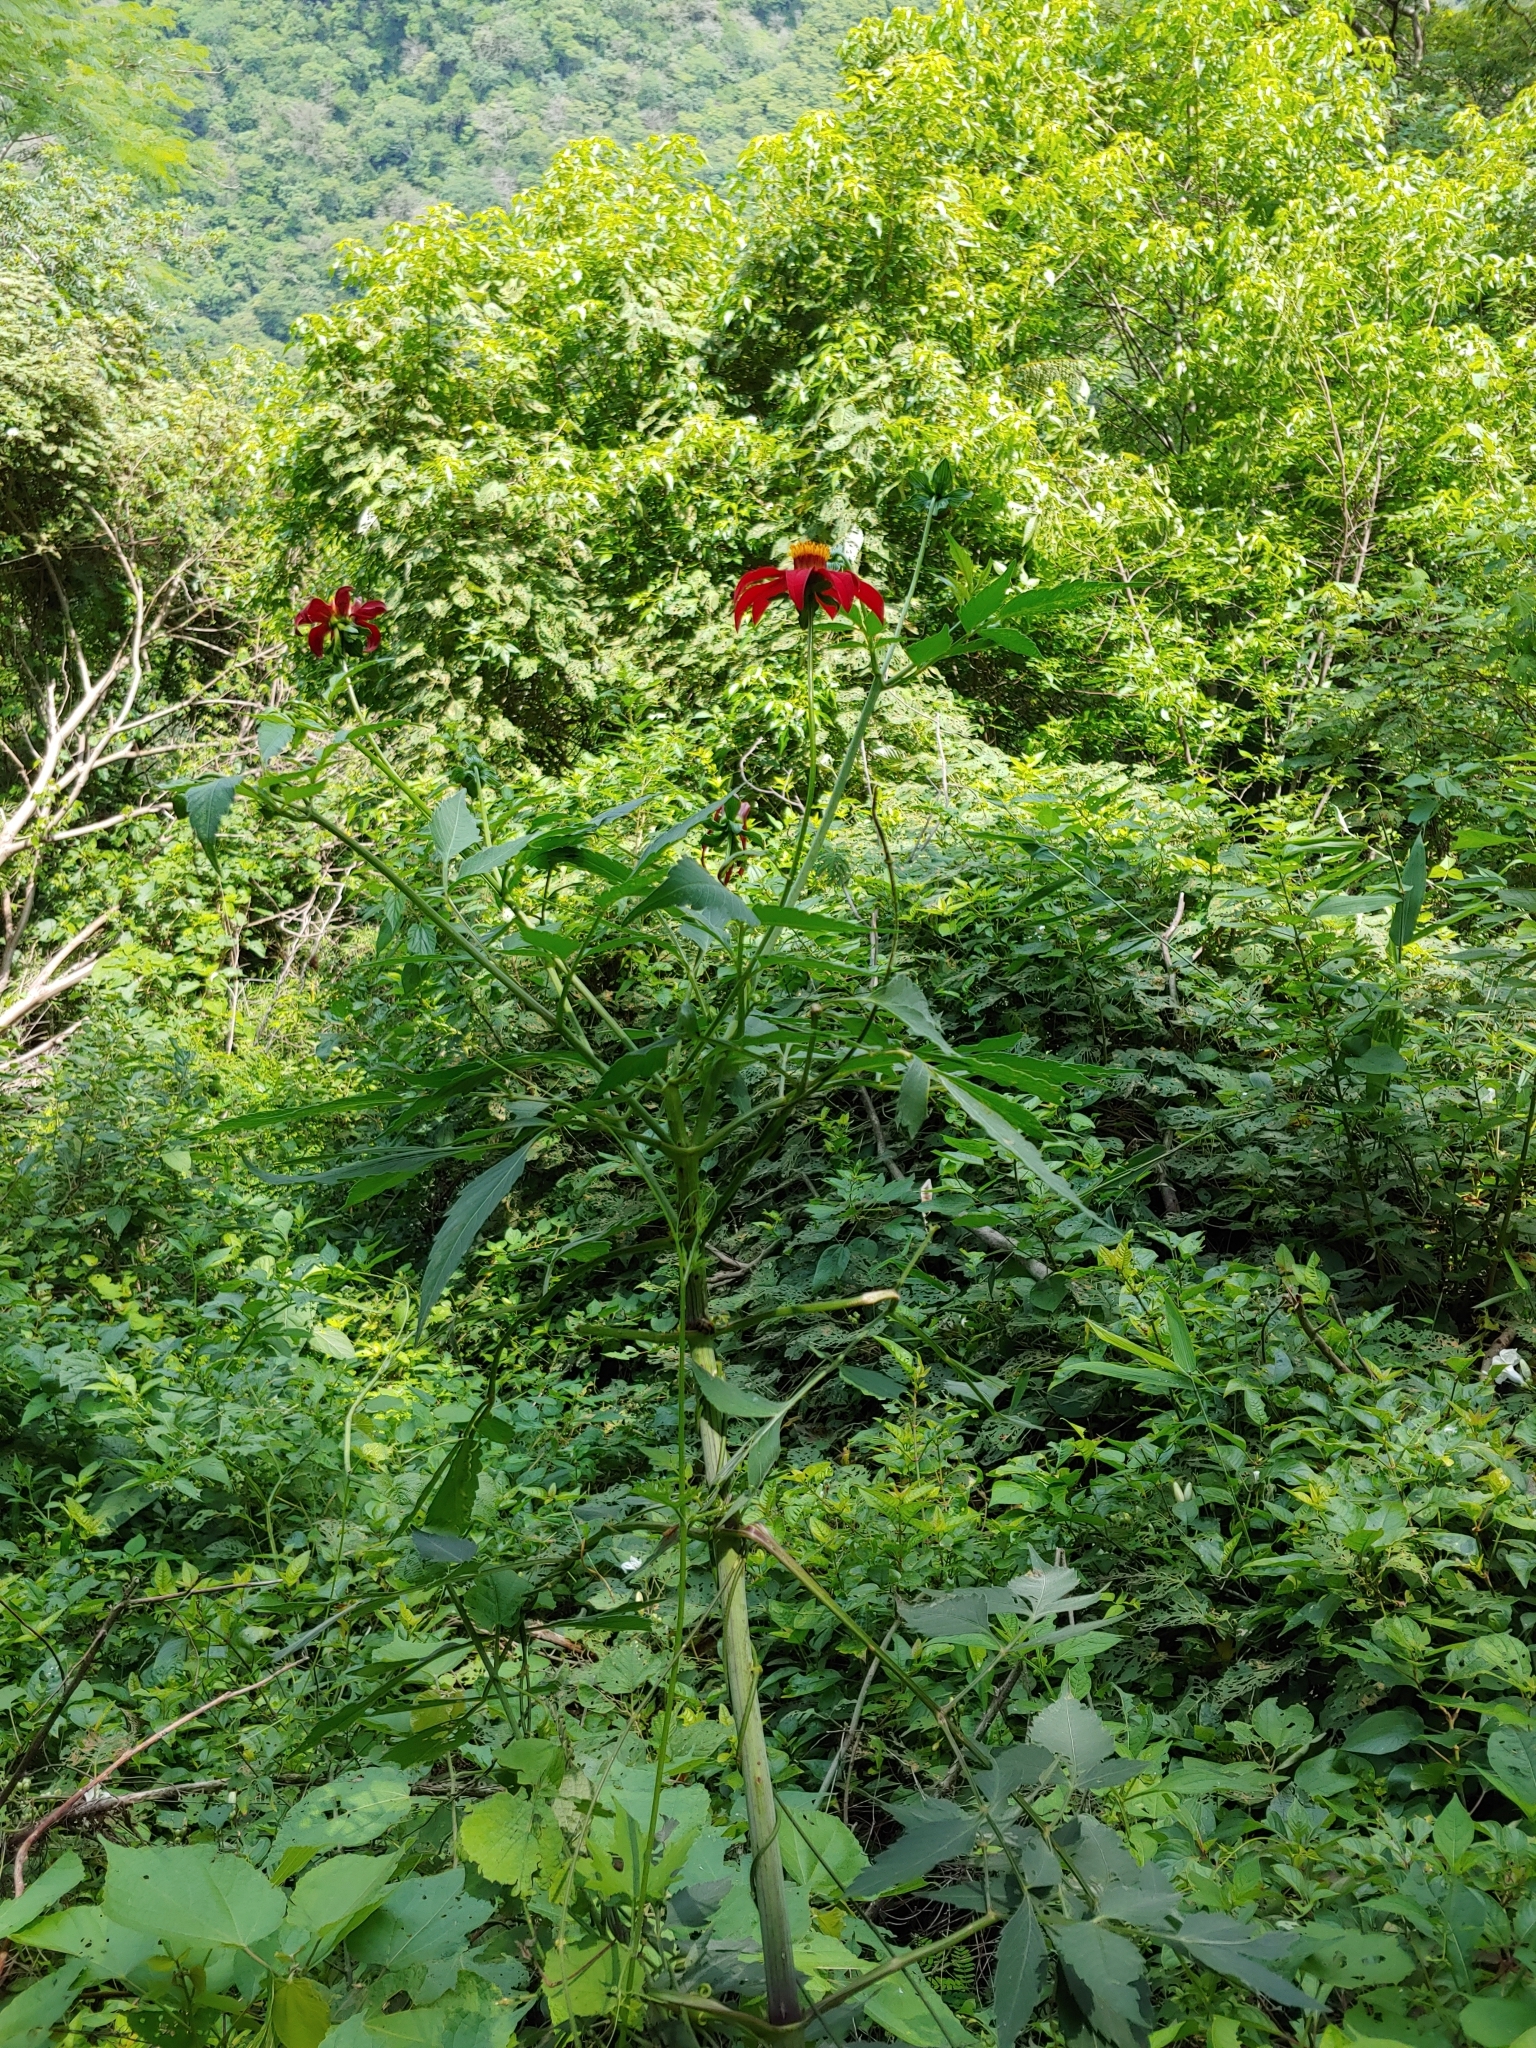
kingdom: Plantae
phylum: Tracheophyta
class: Magnoliopsida
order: Asterales
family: Asteraceae
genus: Dahlia
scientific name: Dahlia coccinea
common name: Red dahlia
